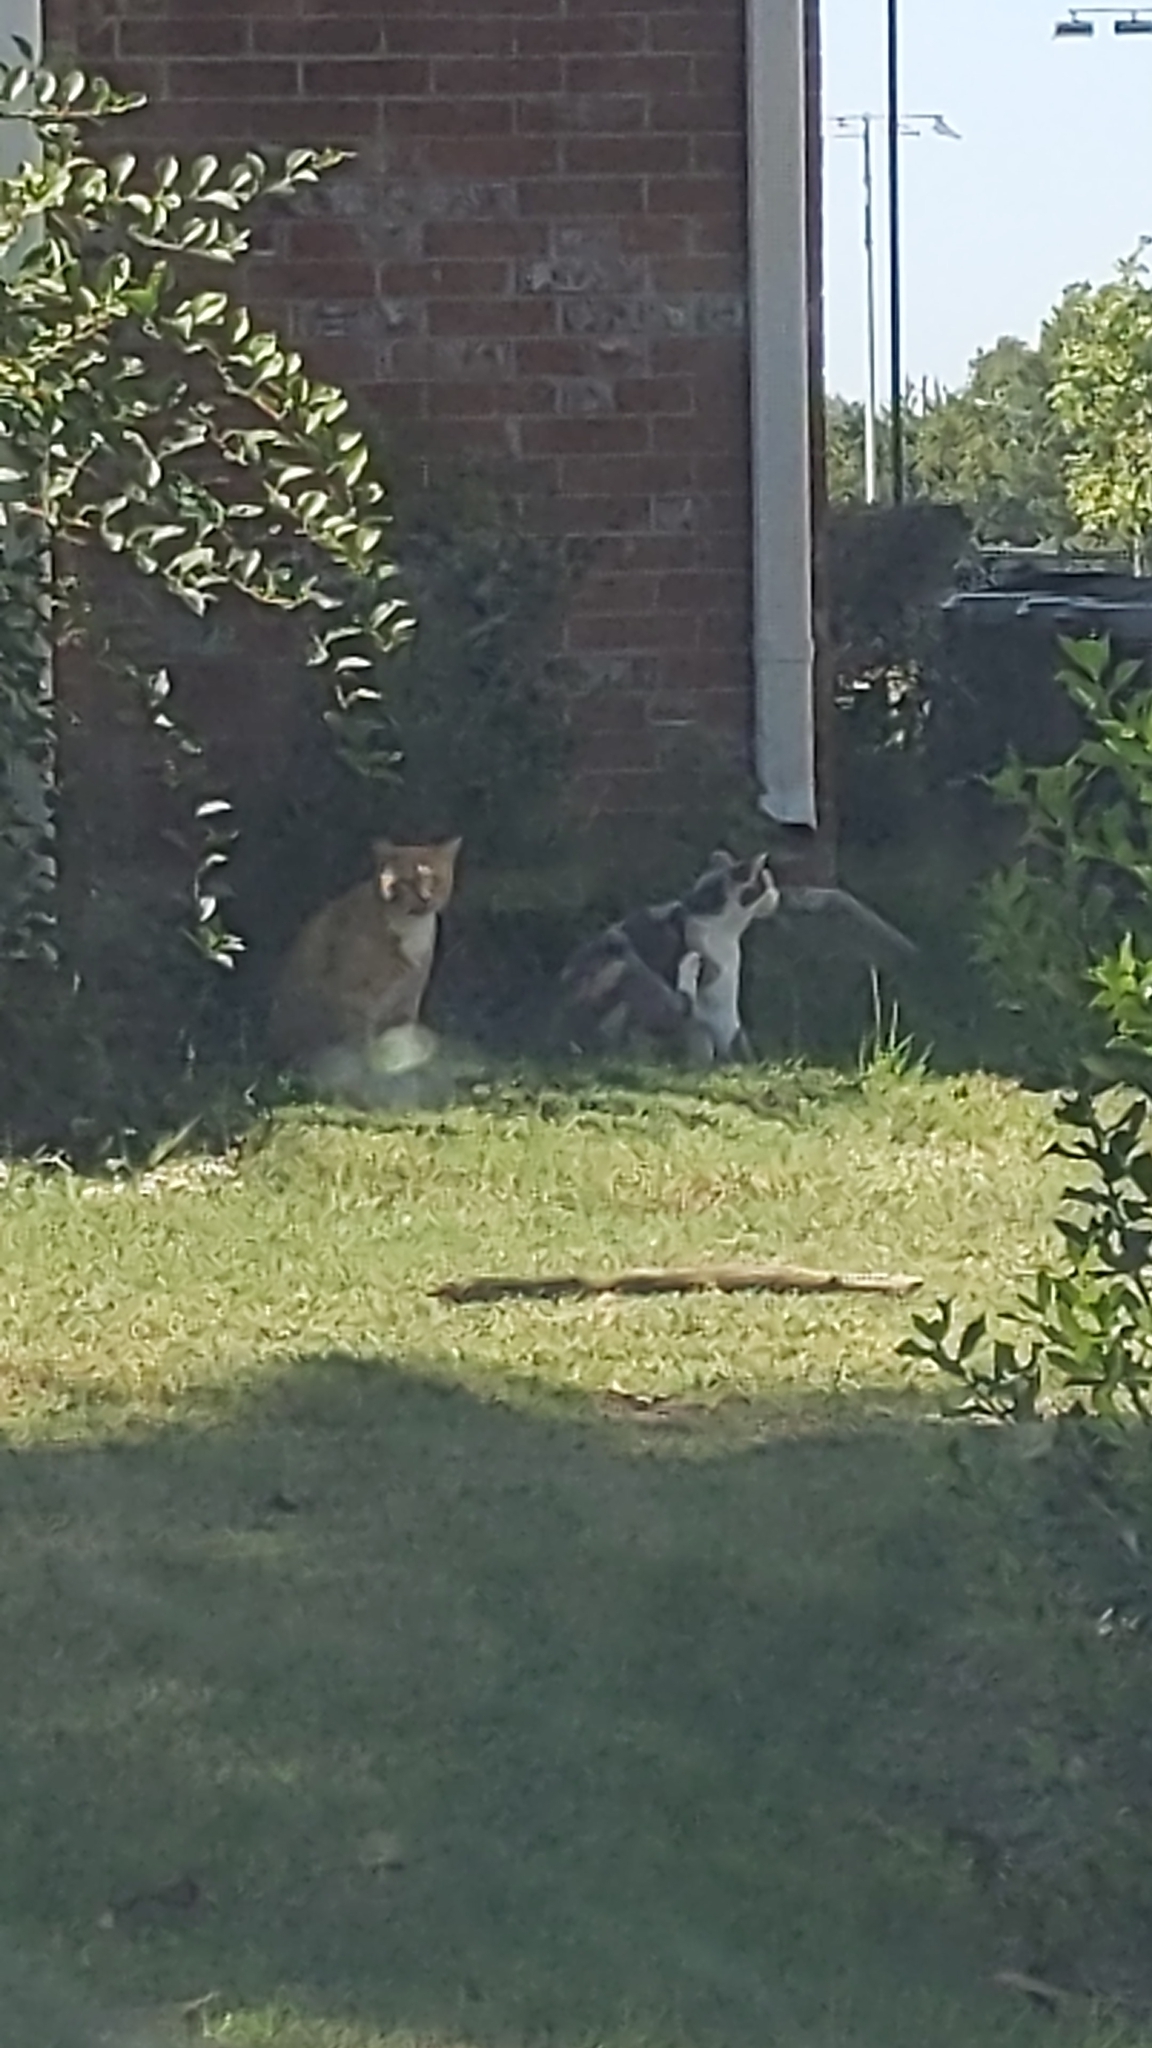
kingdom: Animalia
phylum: Chordata
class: Mammalia
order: Carnivora
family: Felidae
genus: Felis
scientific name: Felis catus
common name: Domestic cat
